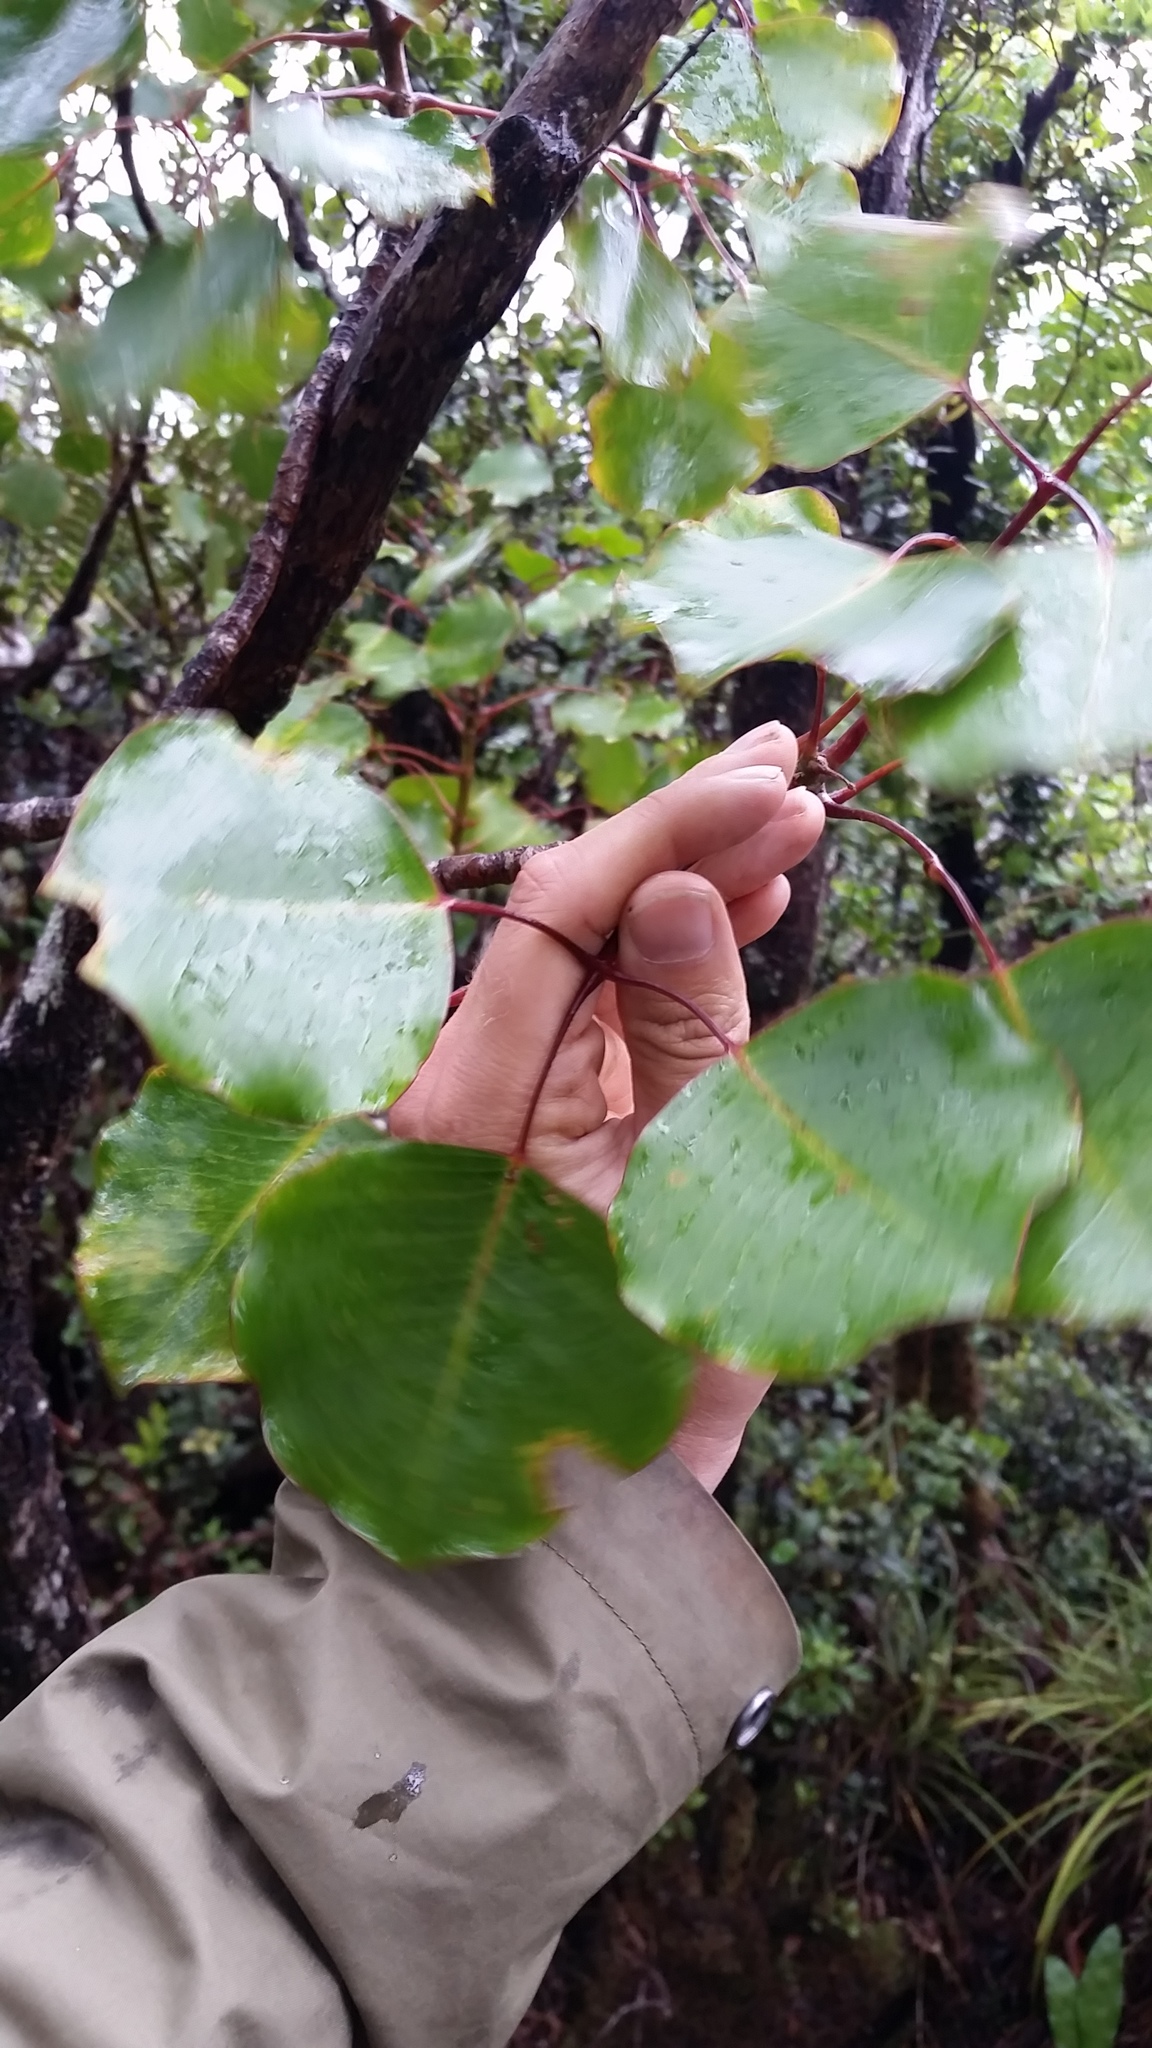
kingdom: Plantae
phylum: Tracheophyta
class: Magnoliopsida
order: Apiales
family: Araliaceae
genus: Cheirodendron
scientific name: Cheirodendron trigynum
